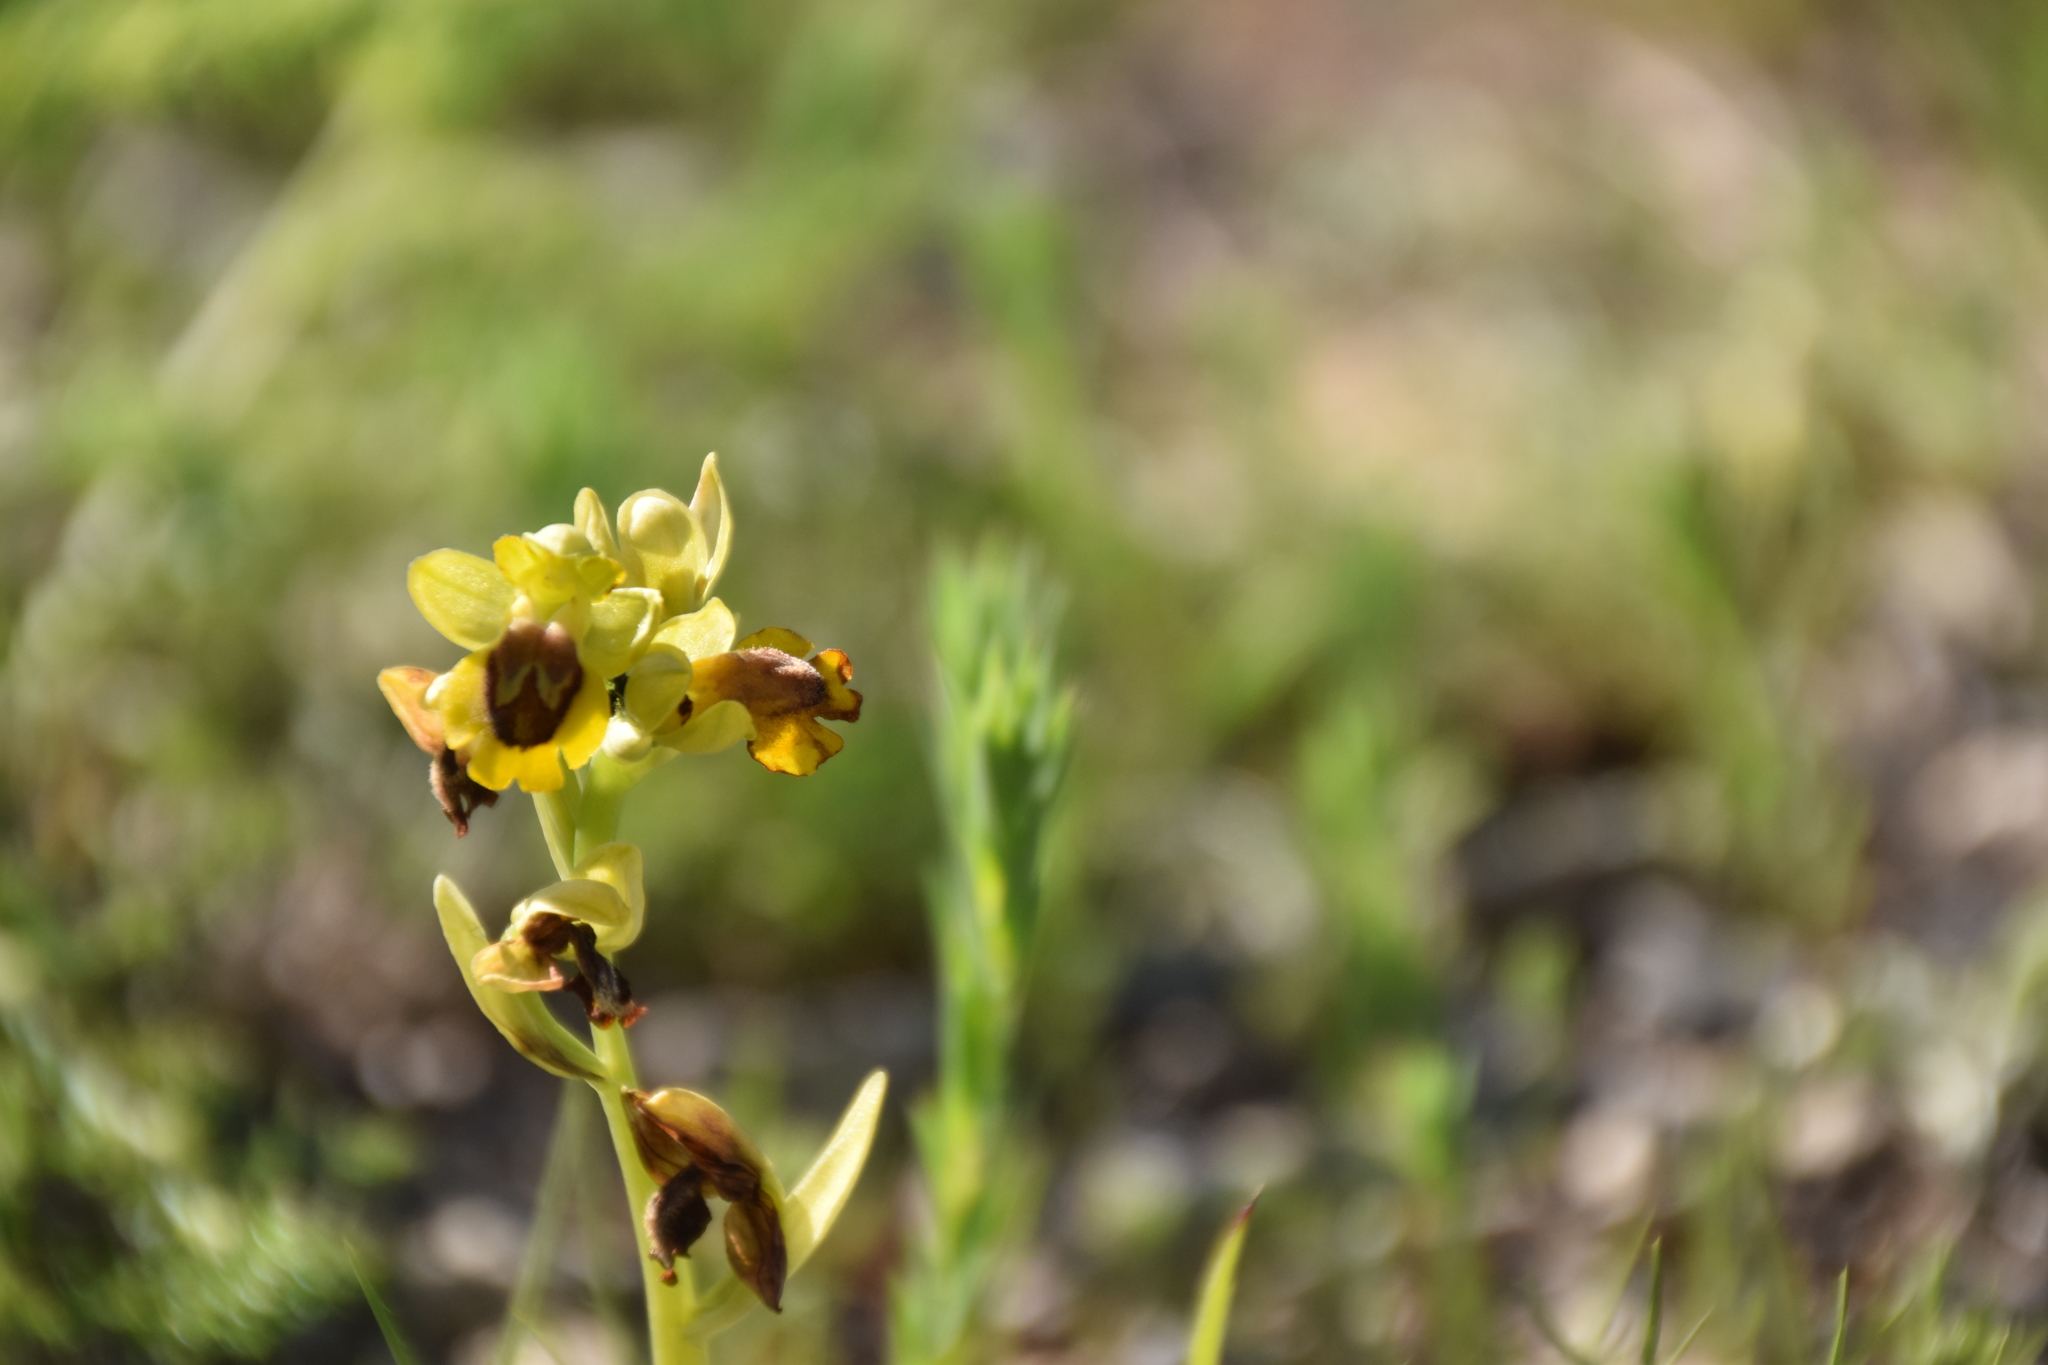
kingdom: Plantae
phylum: Tracheophyta
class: Liliopsida
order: Asparagales
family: Orchidaceae
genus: Ophrys
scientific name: Ophrys lutea
